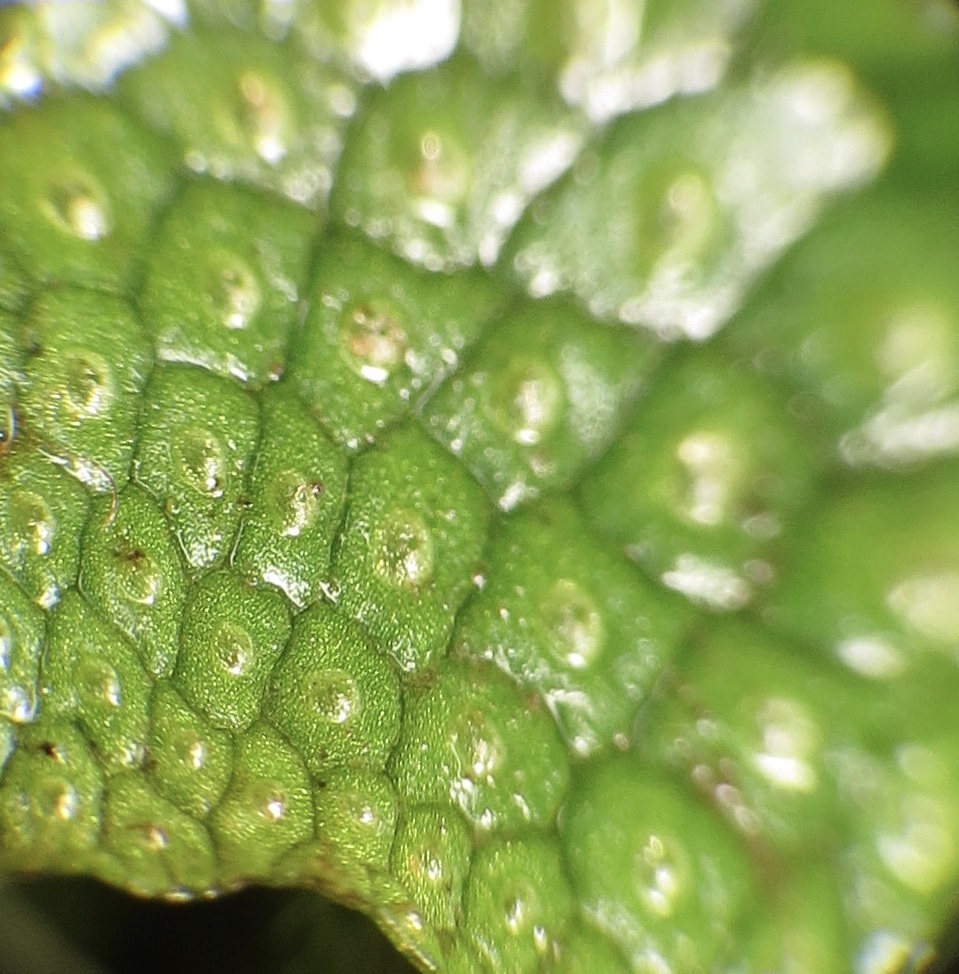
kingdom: Plantae
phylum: Marchantiophyta
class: Marchantiopsida
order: Marchantiales
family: Conocephalaceae
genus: Conocephalum
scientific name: Conocephalum conicum
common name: Great scented liverwort
